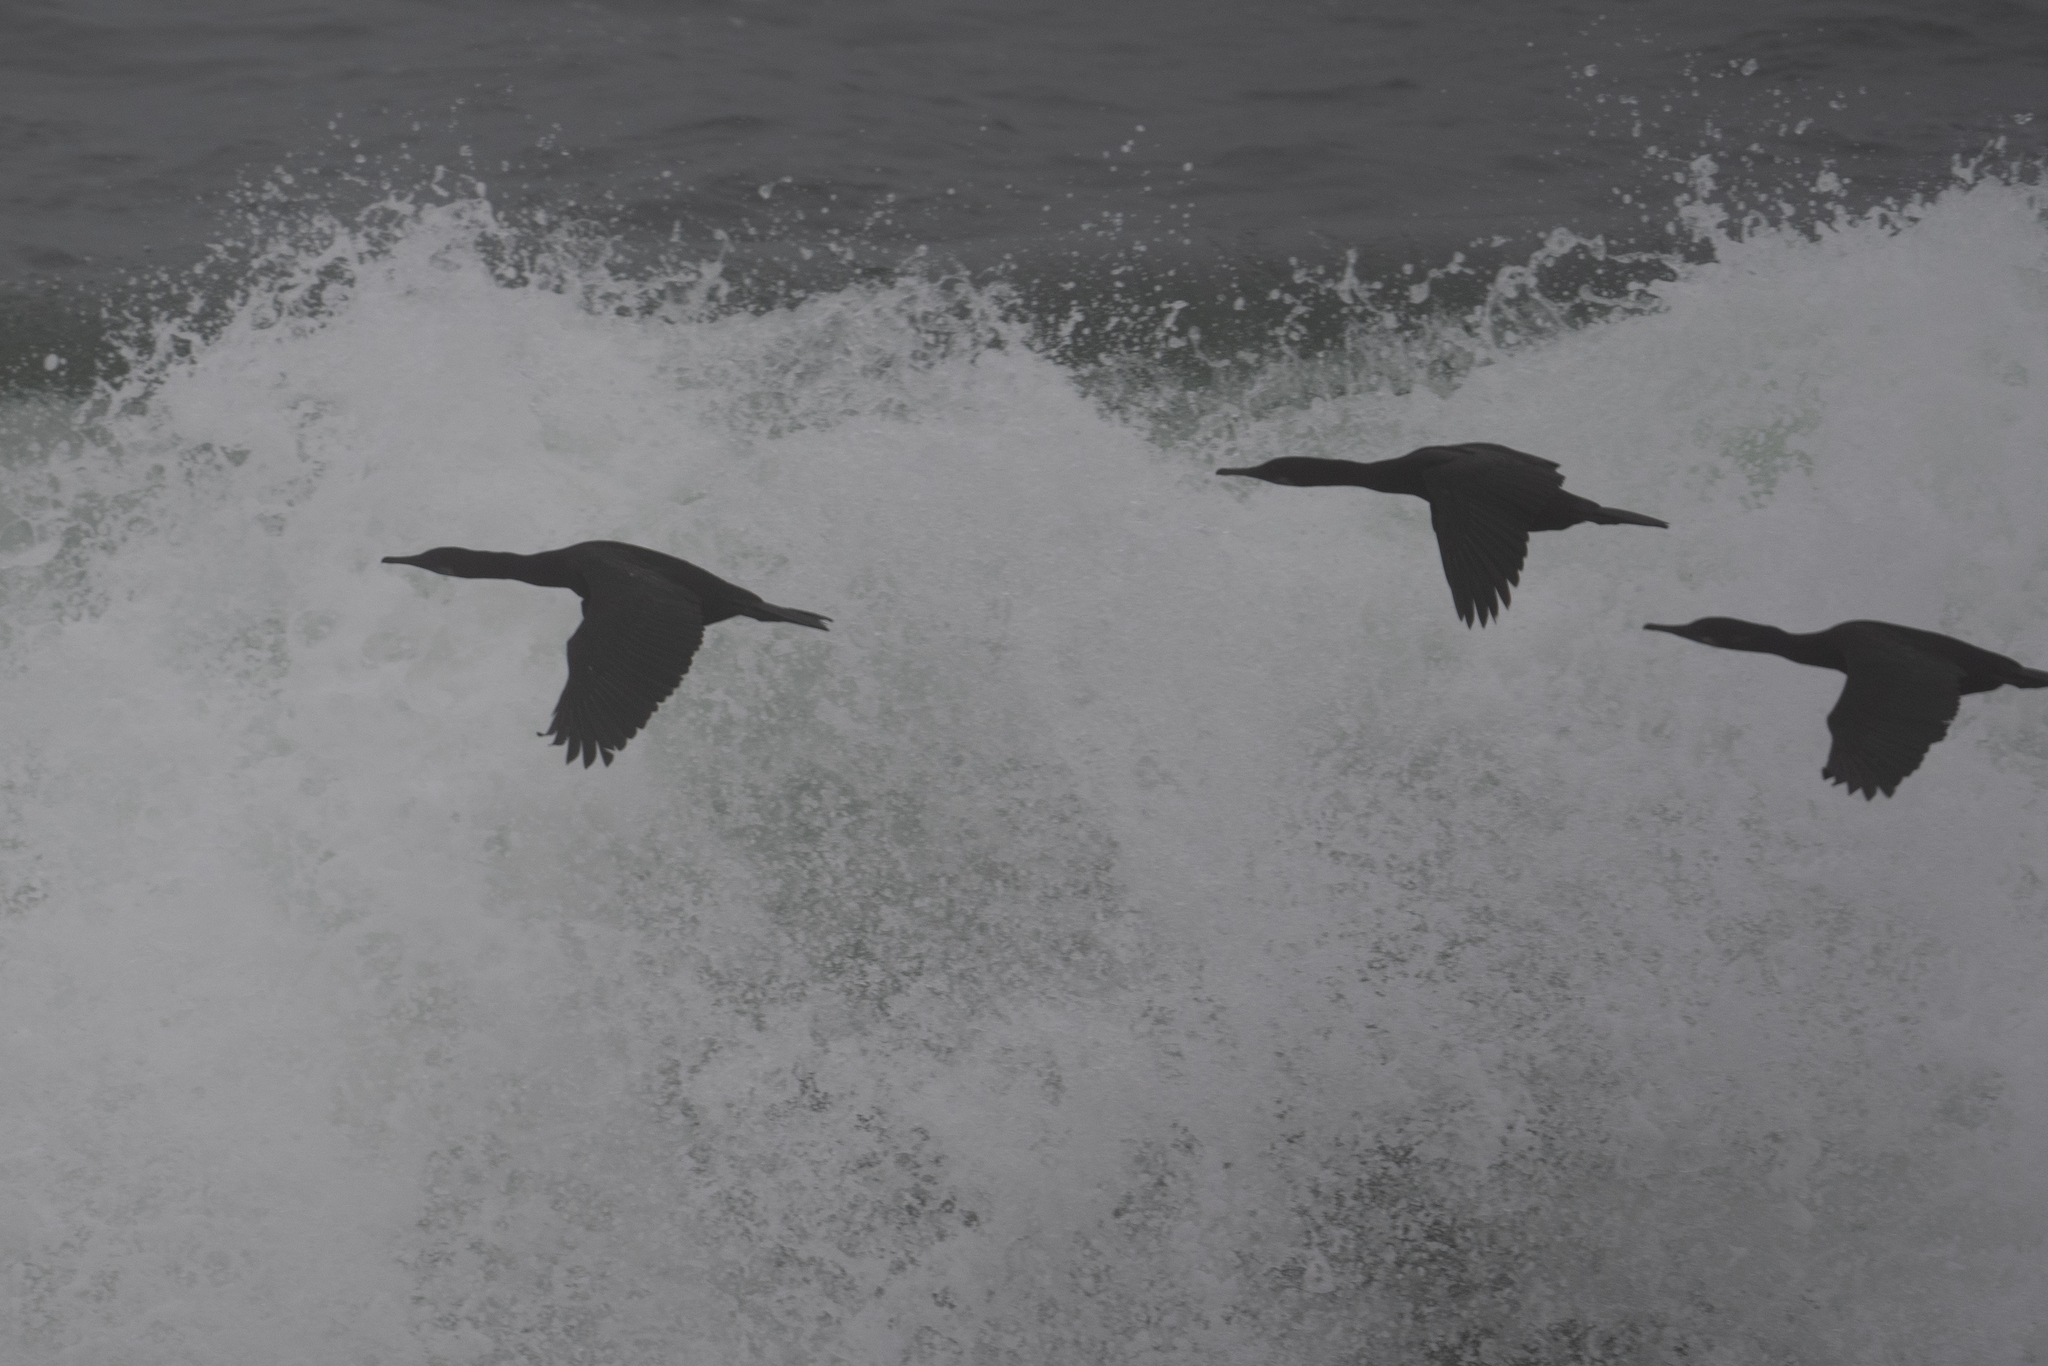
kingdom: Animalia
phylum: Chordata
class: Aves
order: Suliformes
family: Phalacrocoracidae
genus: Urile
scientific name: Urile penicillatus
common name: Brandt's cormorant
